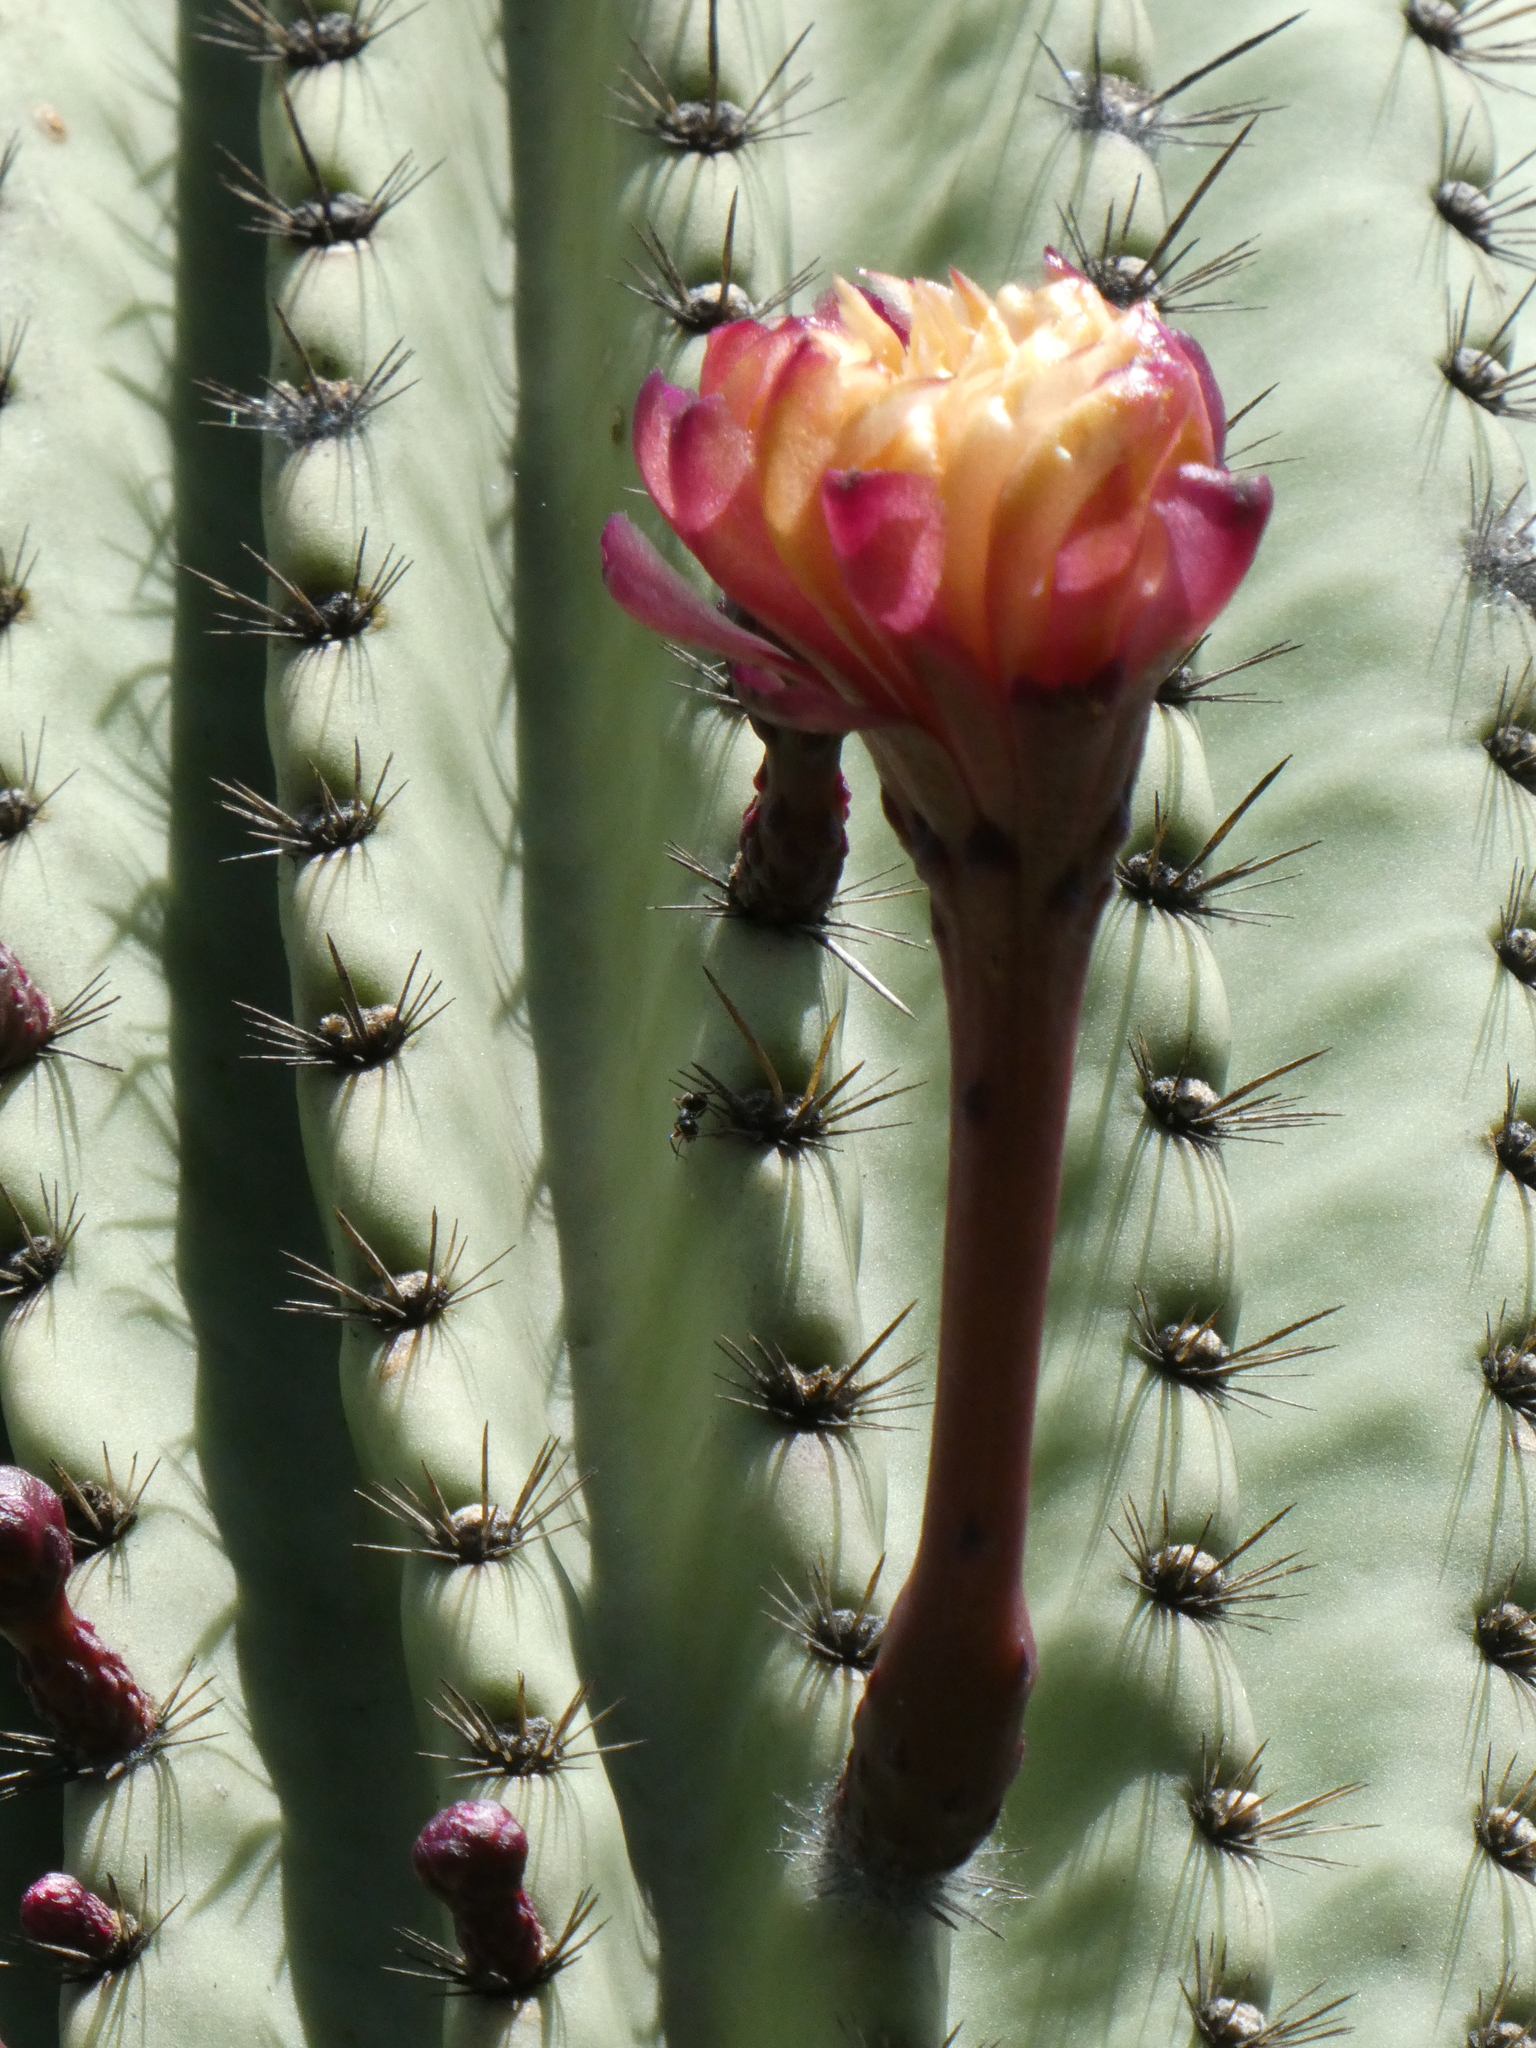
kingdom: Plantae
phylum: Tracheophyta
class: Magnoliopsida
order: Caryophyllales
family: Cactaceae
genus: Jasminocereus
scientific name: Jasminocereus thouarsii
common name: Candelabra cactus
